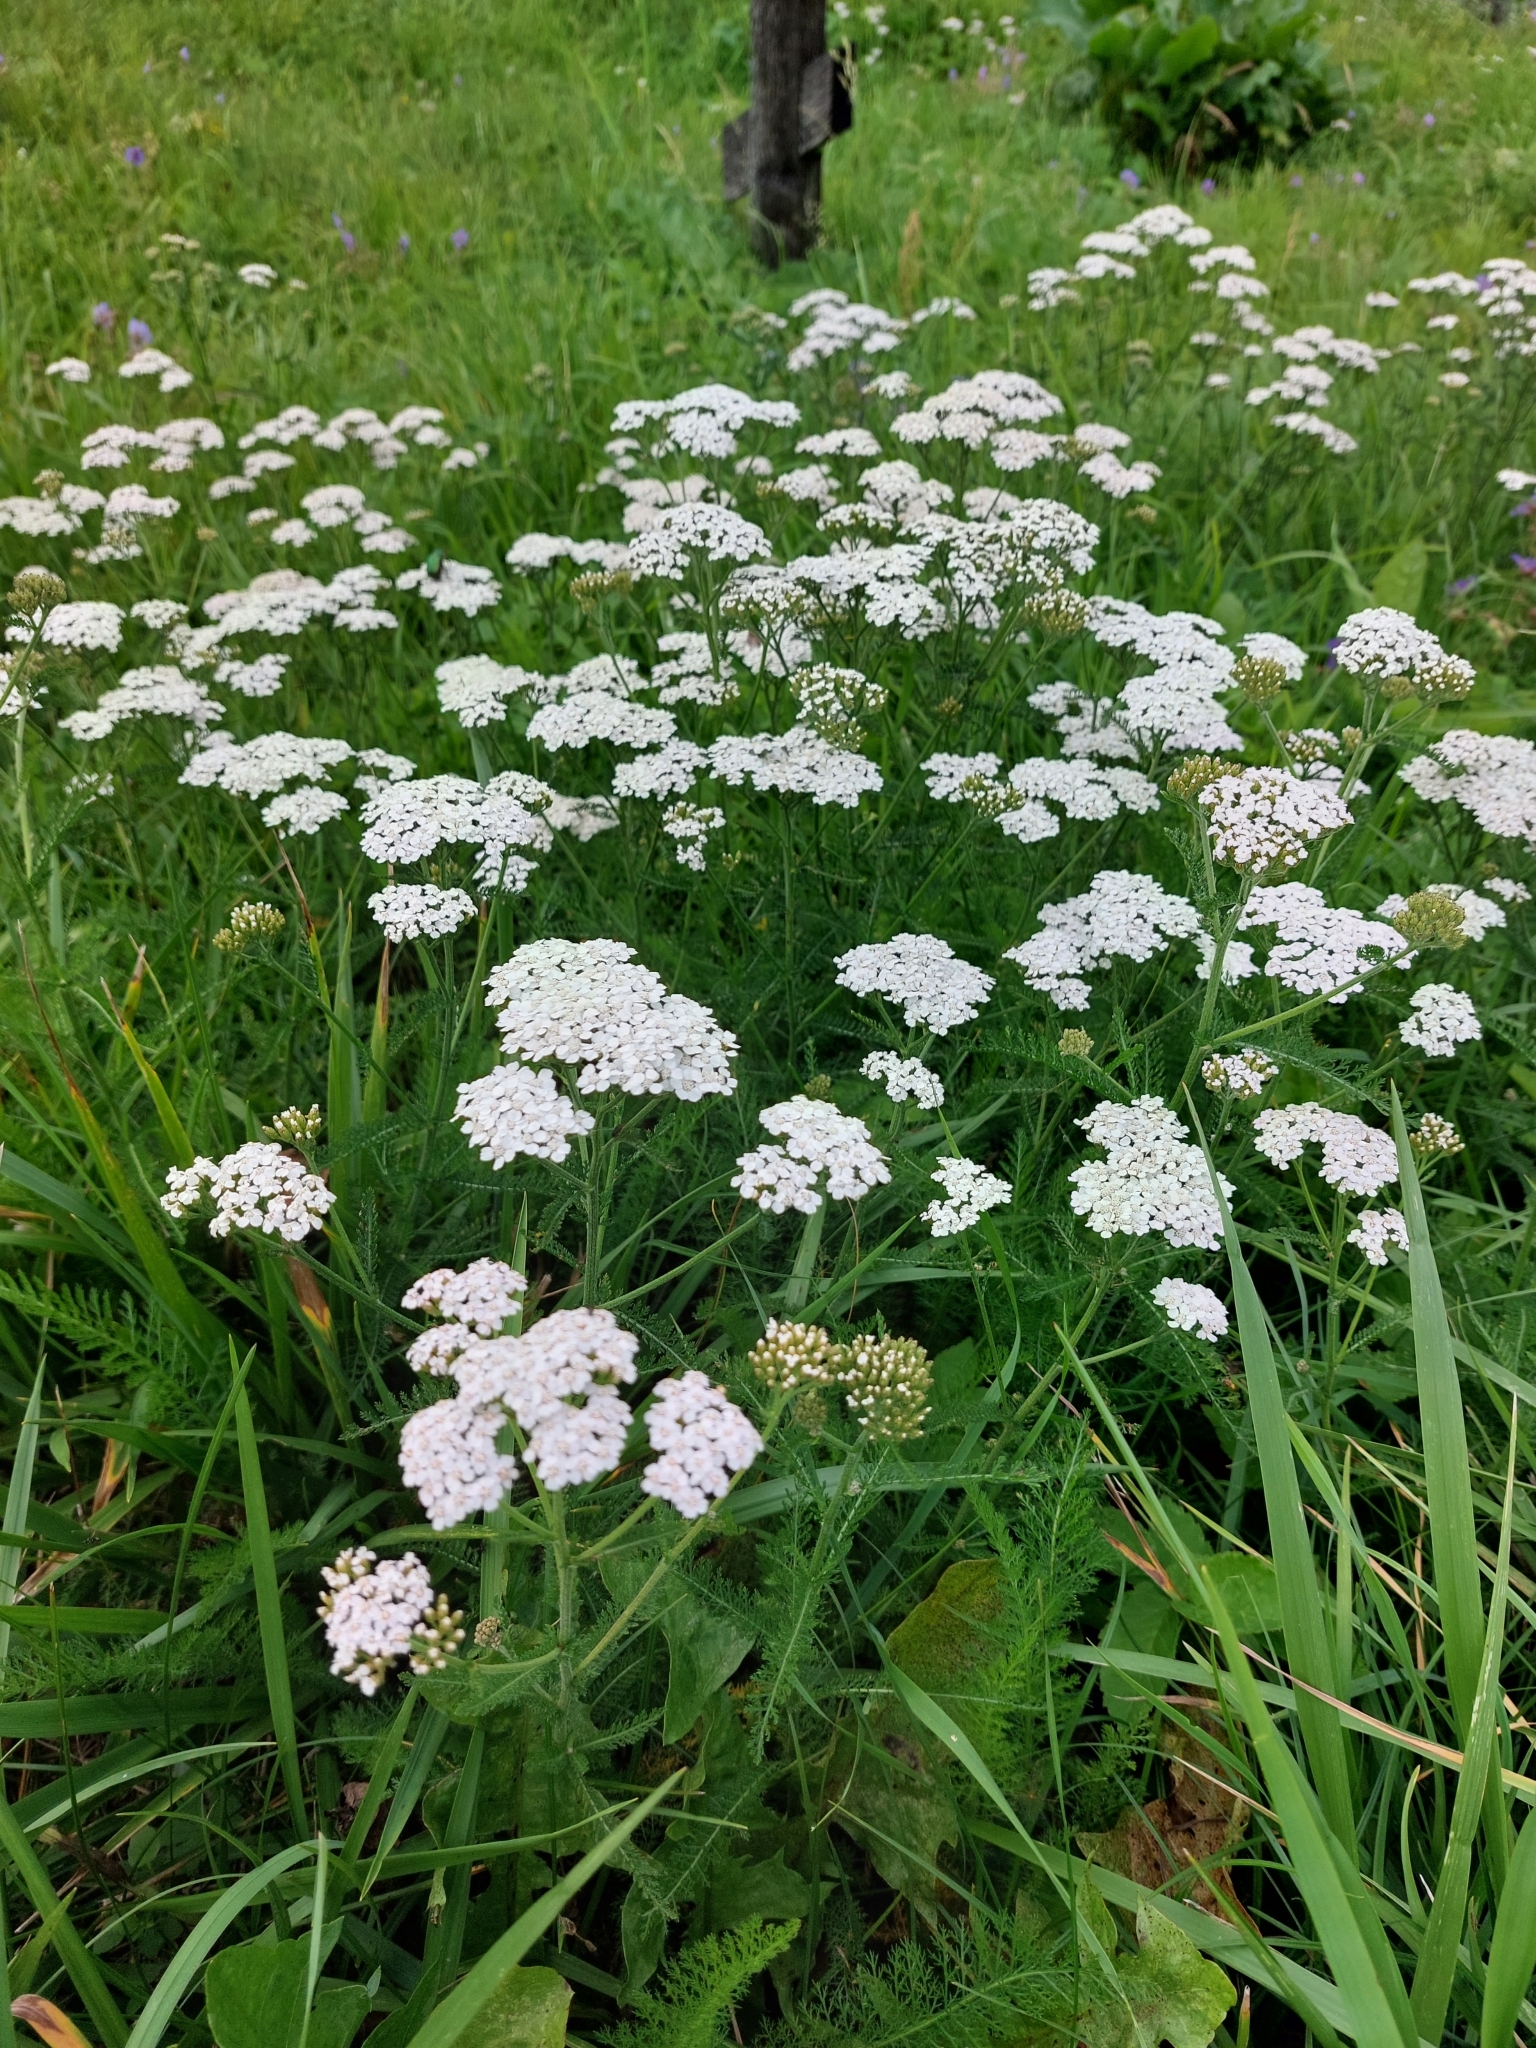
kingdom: Plantae
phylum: Tracheophyta
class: Magnoliopsida
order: Asterales
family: Asteraceae
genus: Achillea
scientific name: Achillea millefolium
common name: Yarrow
